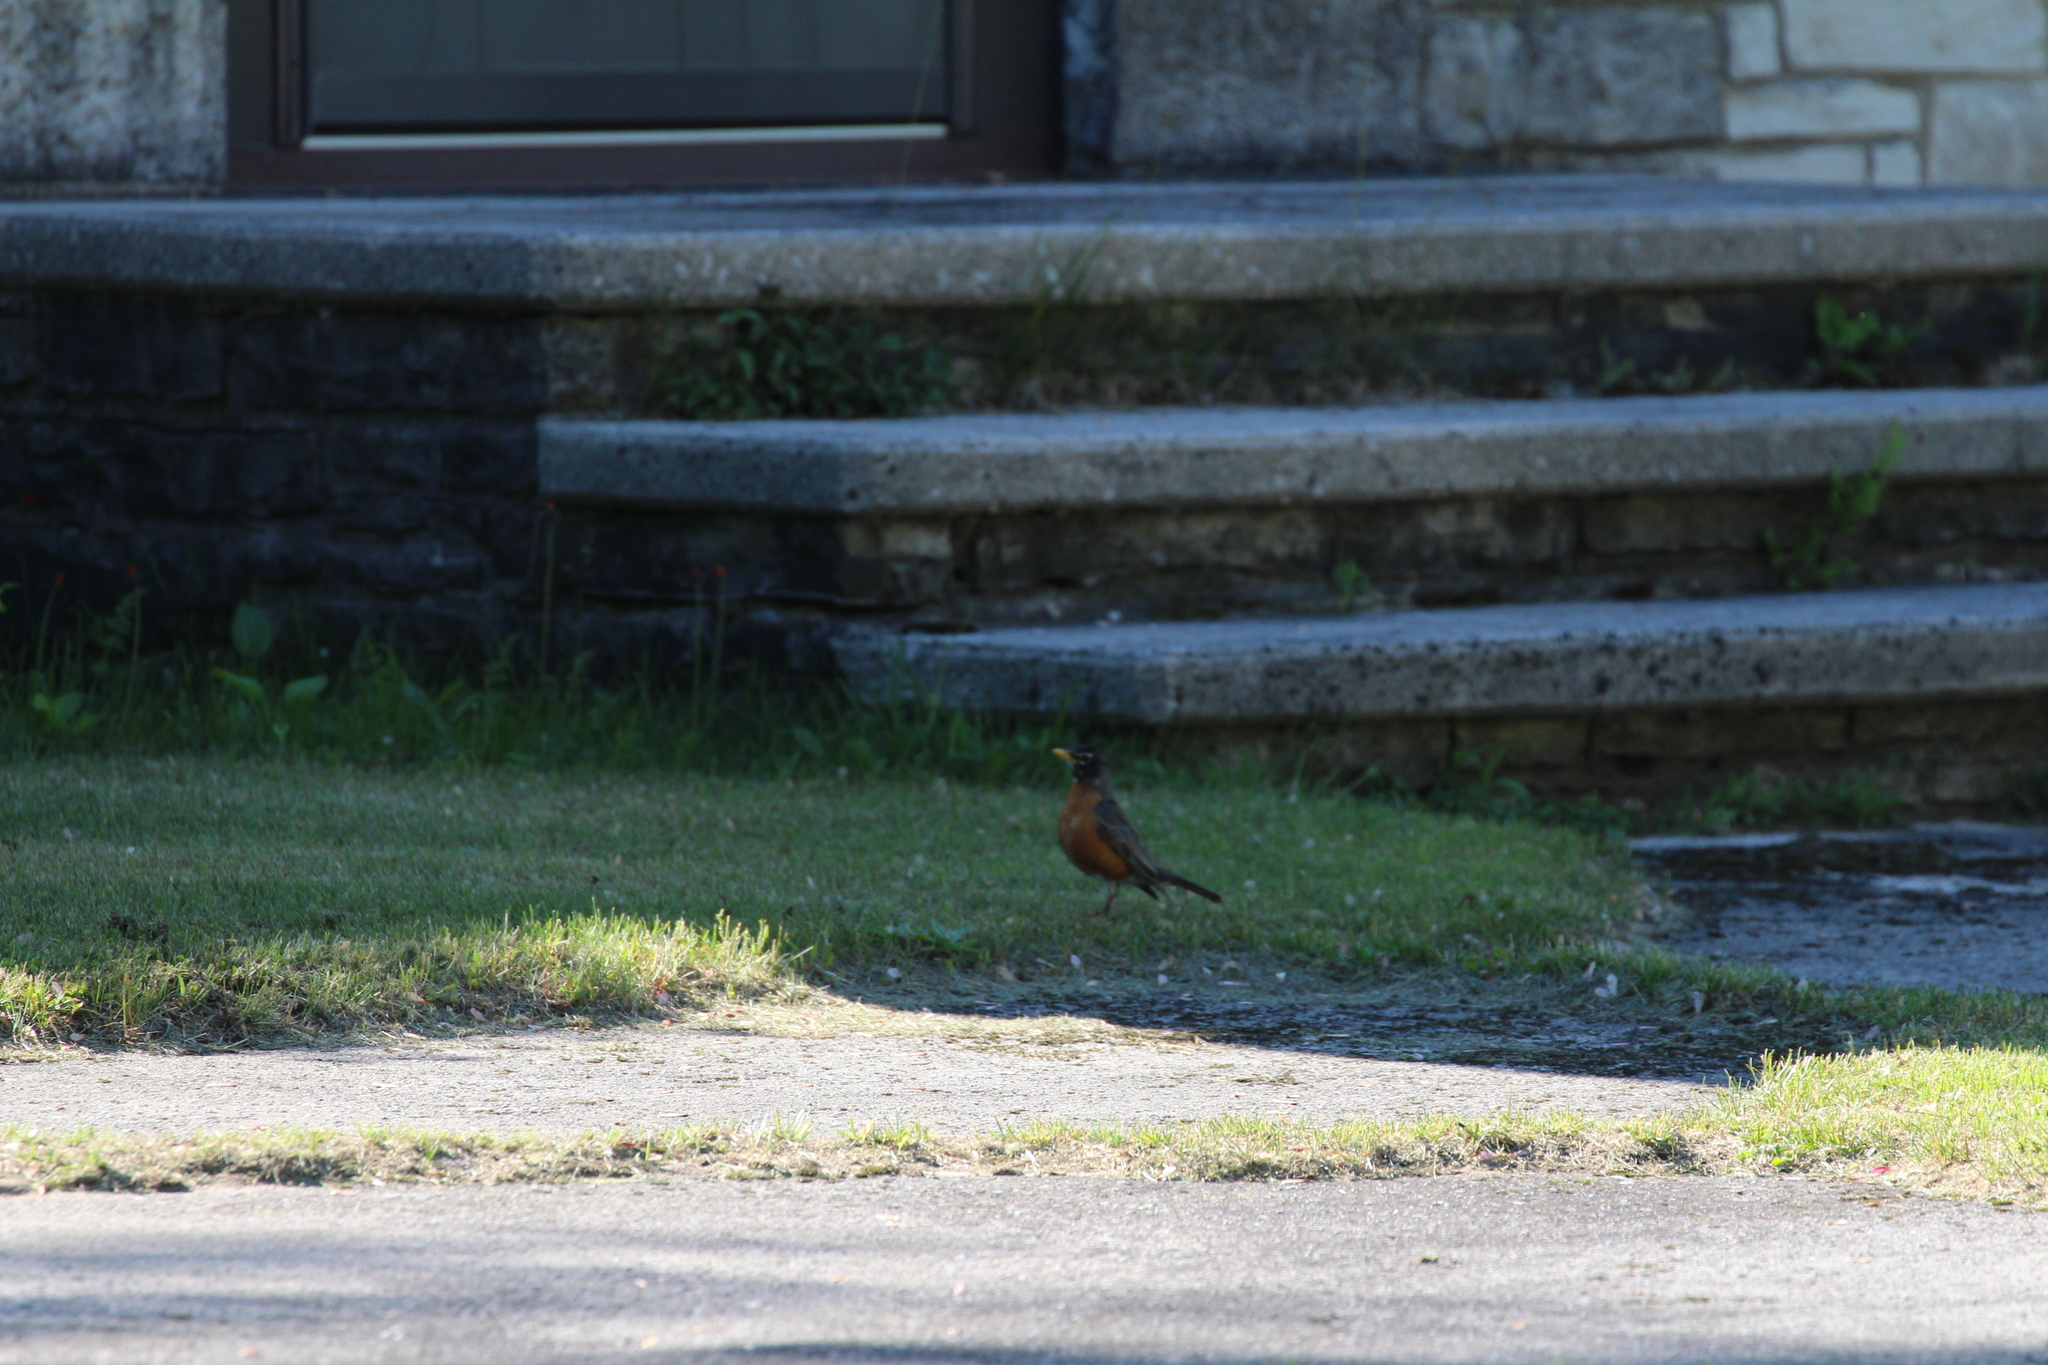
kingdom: Animalia
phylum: Chordata
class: Aves
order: Passeriformes
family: Turdidae
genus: Turdus
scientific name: Turdus migratorius
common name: American robin
